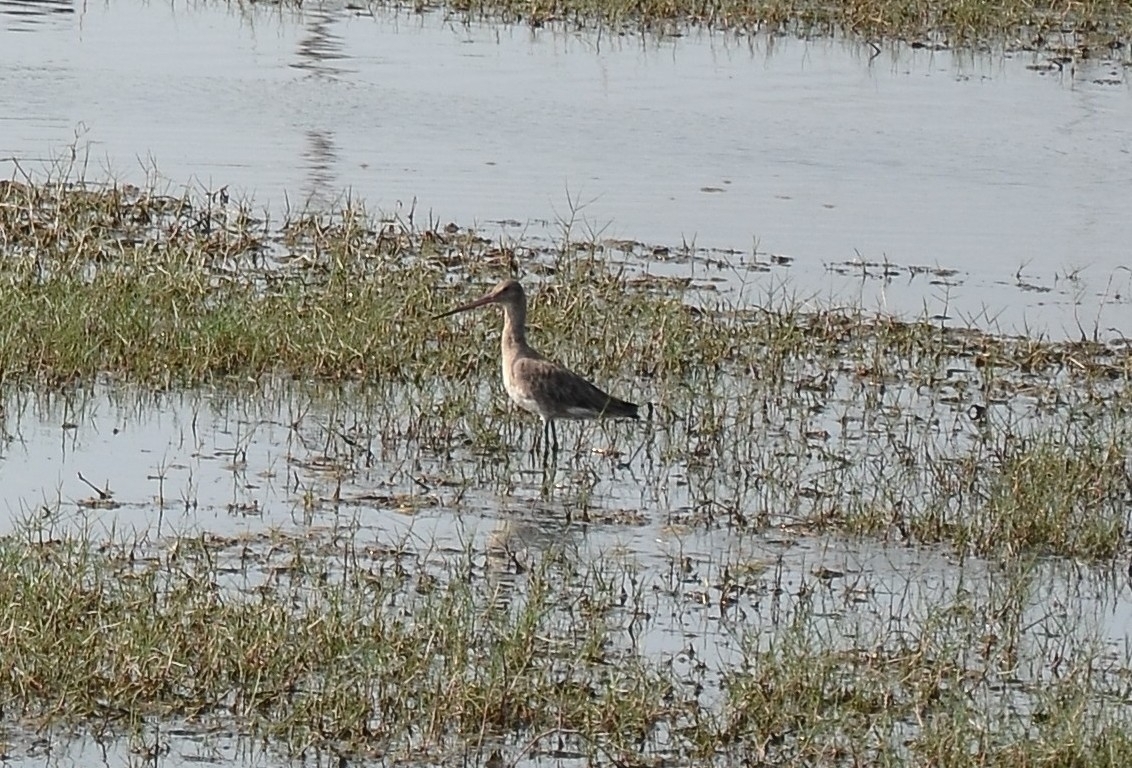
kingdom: Animalia
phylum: Chordata
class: Aves
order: Charadriiformes
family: Scolopacidae
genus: Limosa
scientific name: Limosa limosa
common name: Black-tailed godwit
